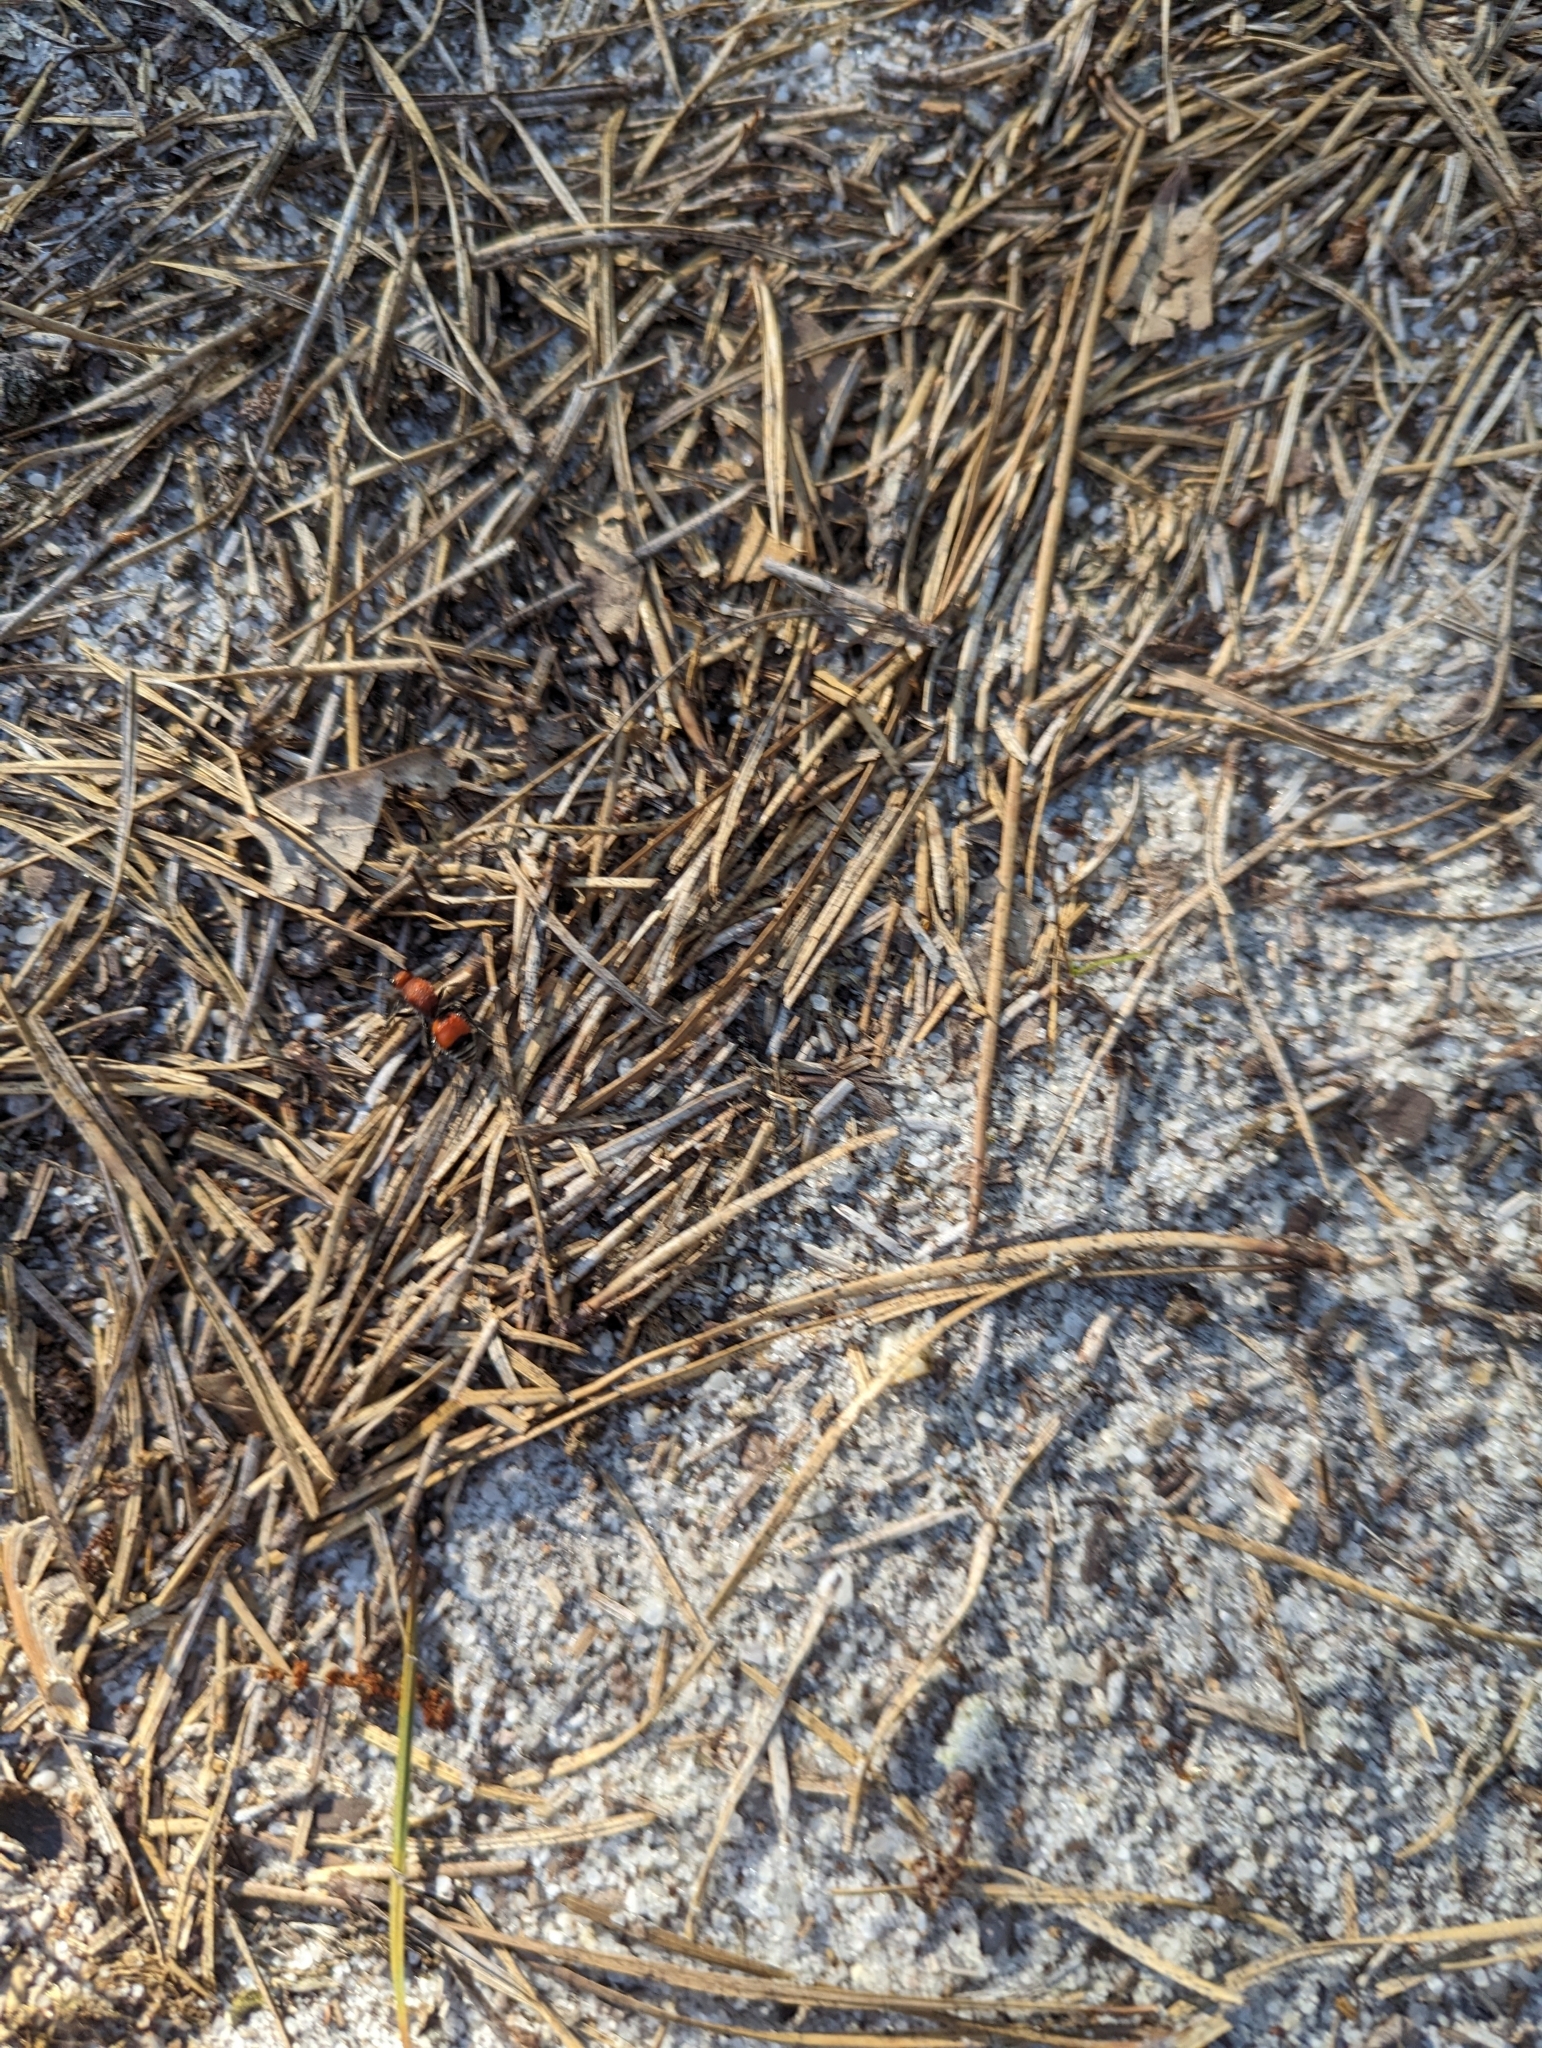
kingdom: Animalia
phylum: Arthropoda
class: Insecta
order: Hymenoptera
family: Mutillidae
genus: Dasymutilla
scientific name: Dasymutilla
